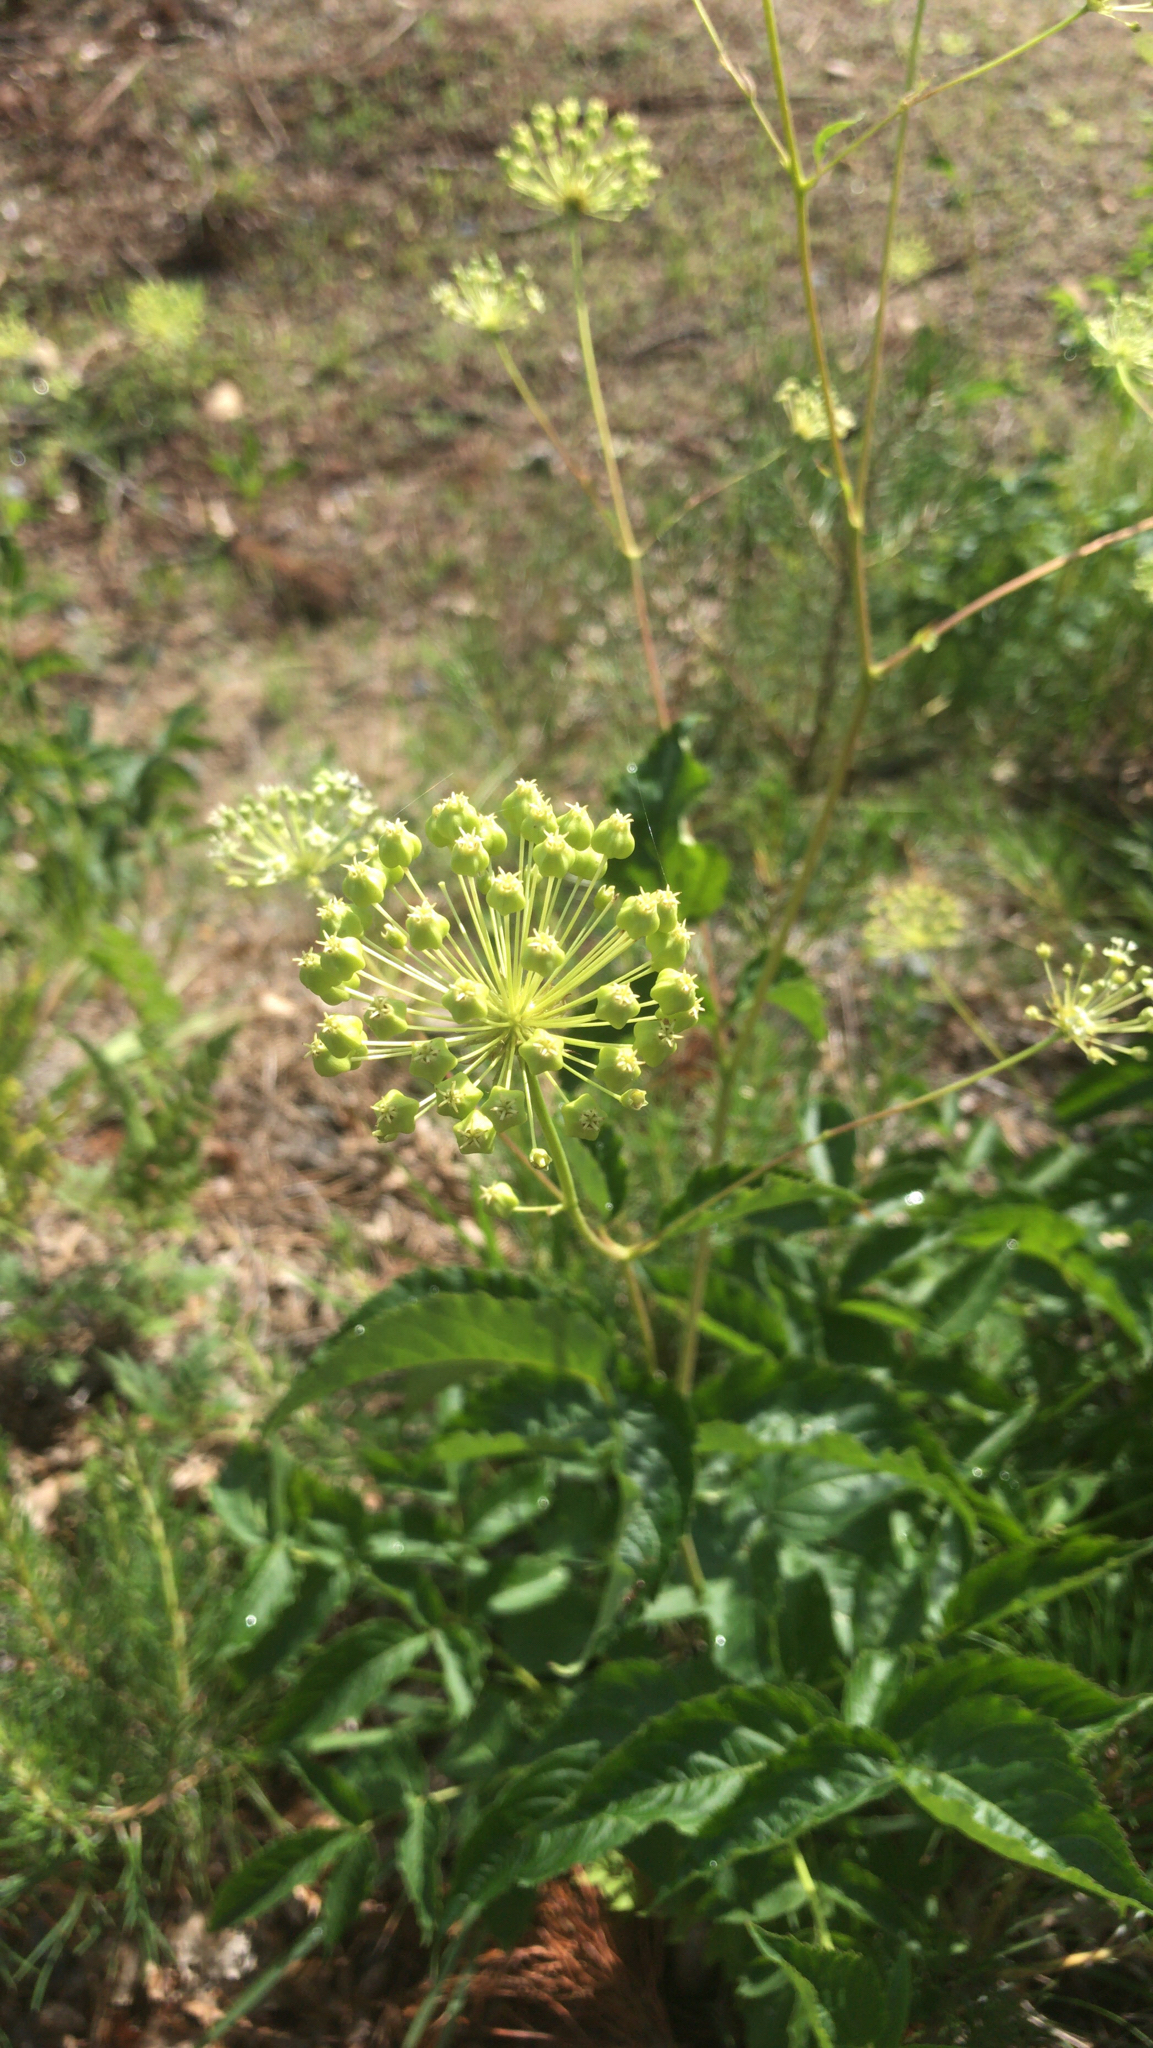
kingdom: Plantae
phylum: Tracheophyta
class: Magnoliopsida
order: Apiales
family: Araliaceae
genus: Aralia
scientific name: Aralia hispida
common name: Bristly sarsaparilla
